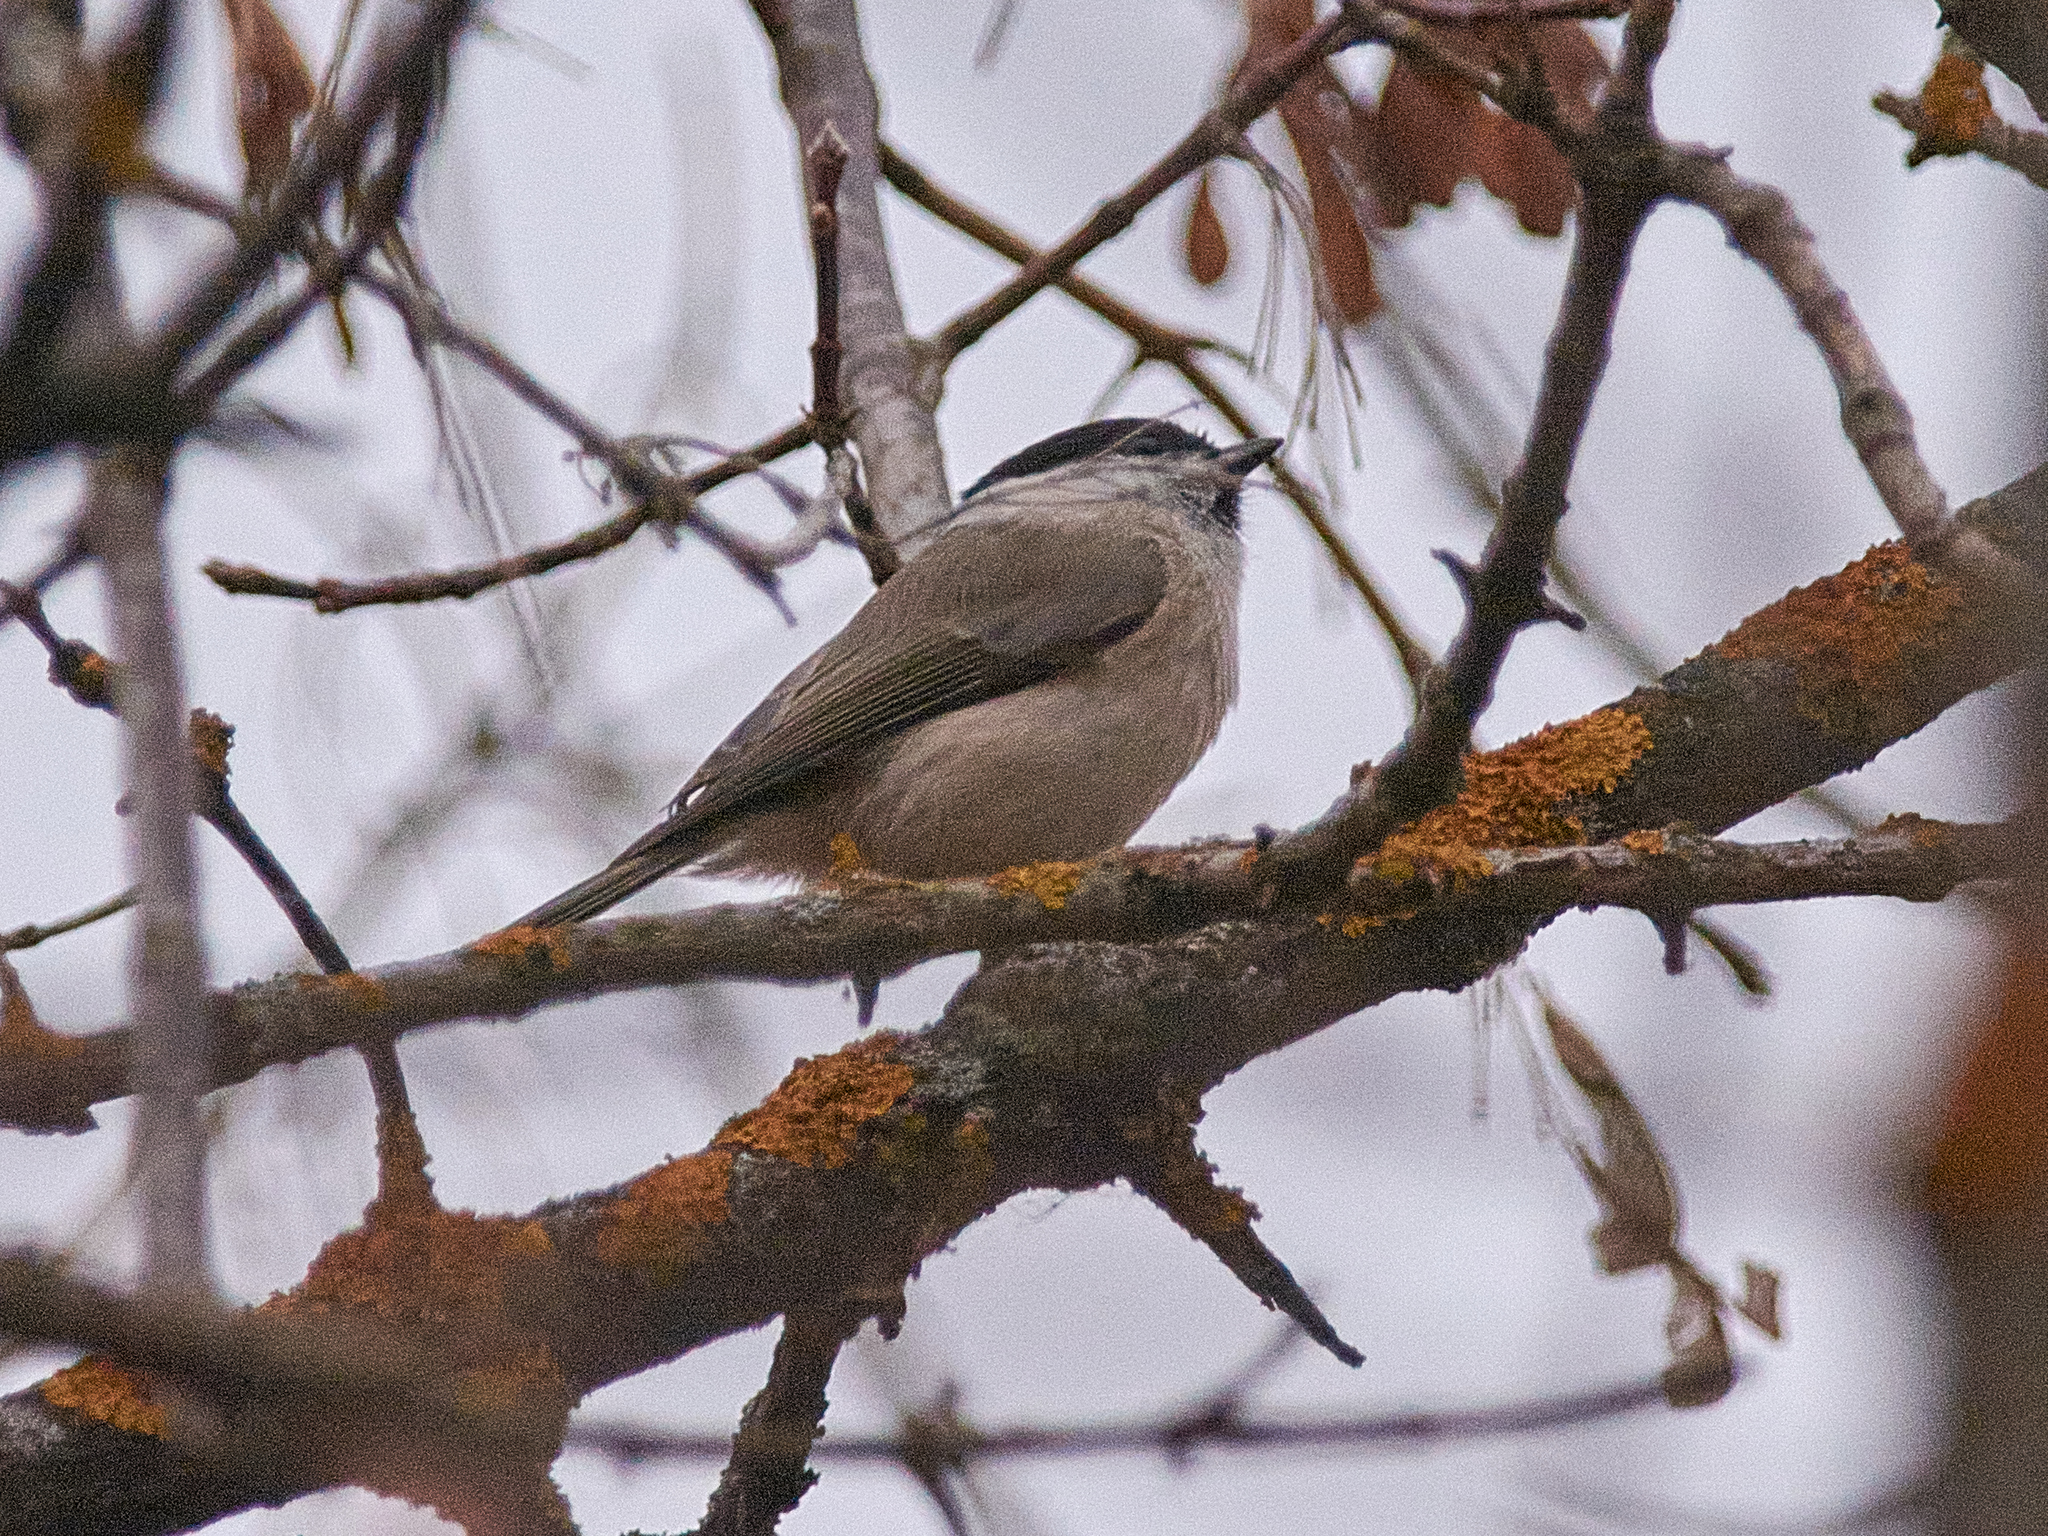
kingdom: Animalia
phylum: Chordata
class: Aves
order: Passeriformes
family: Paridae
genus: Poecile
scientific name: Poecile palustris
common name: Marsh tit
